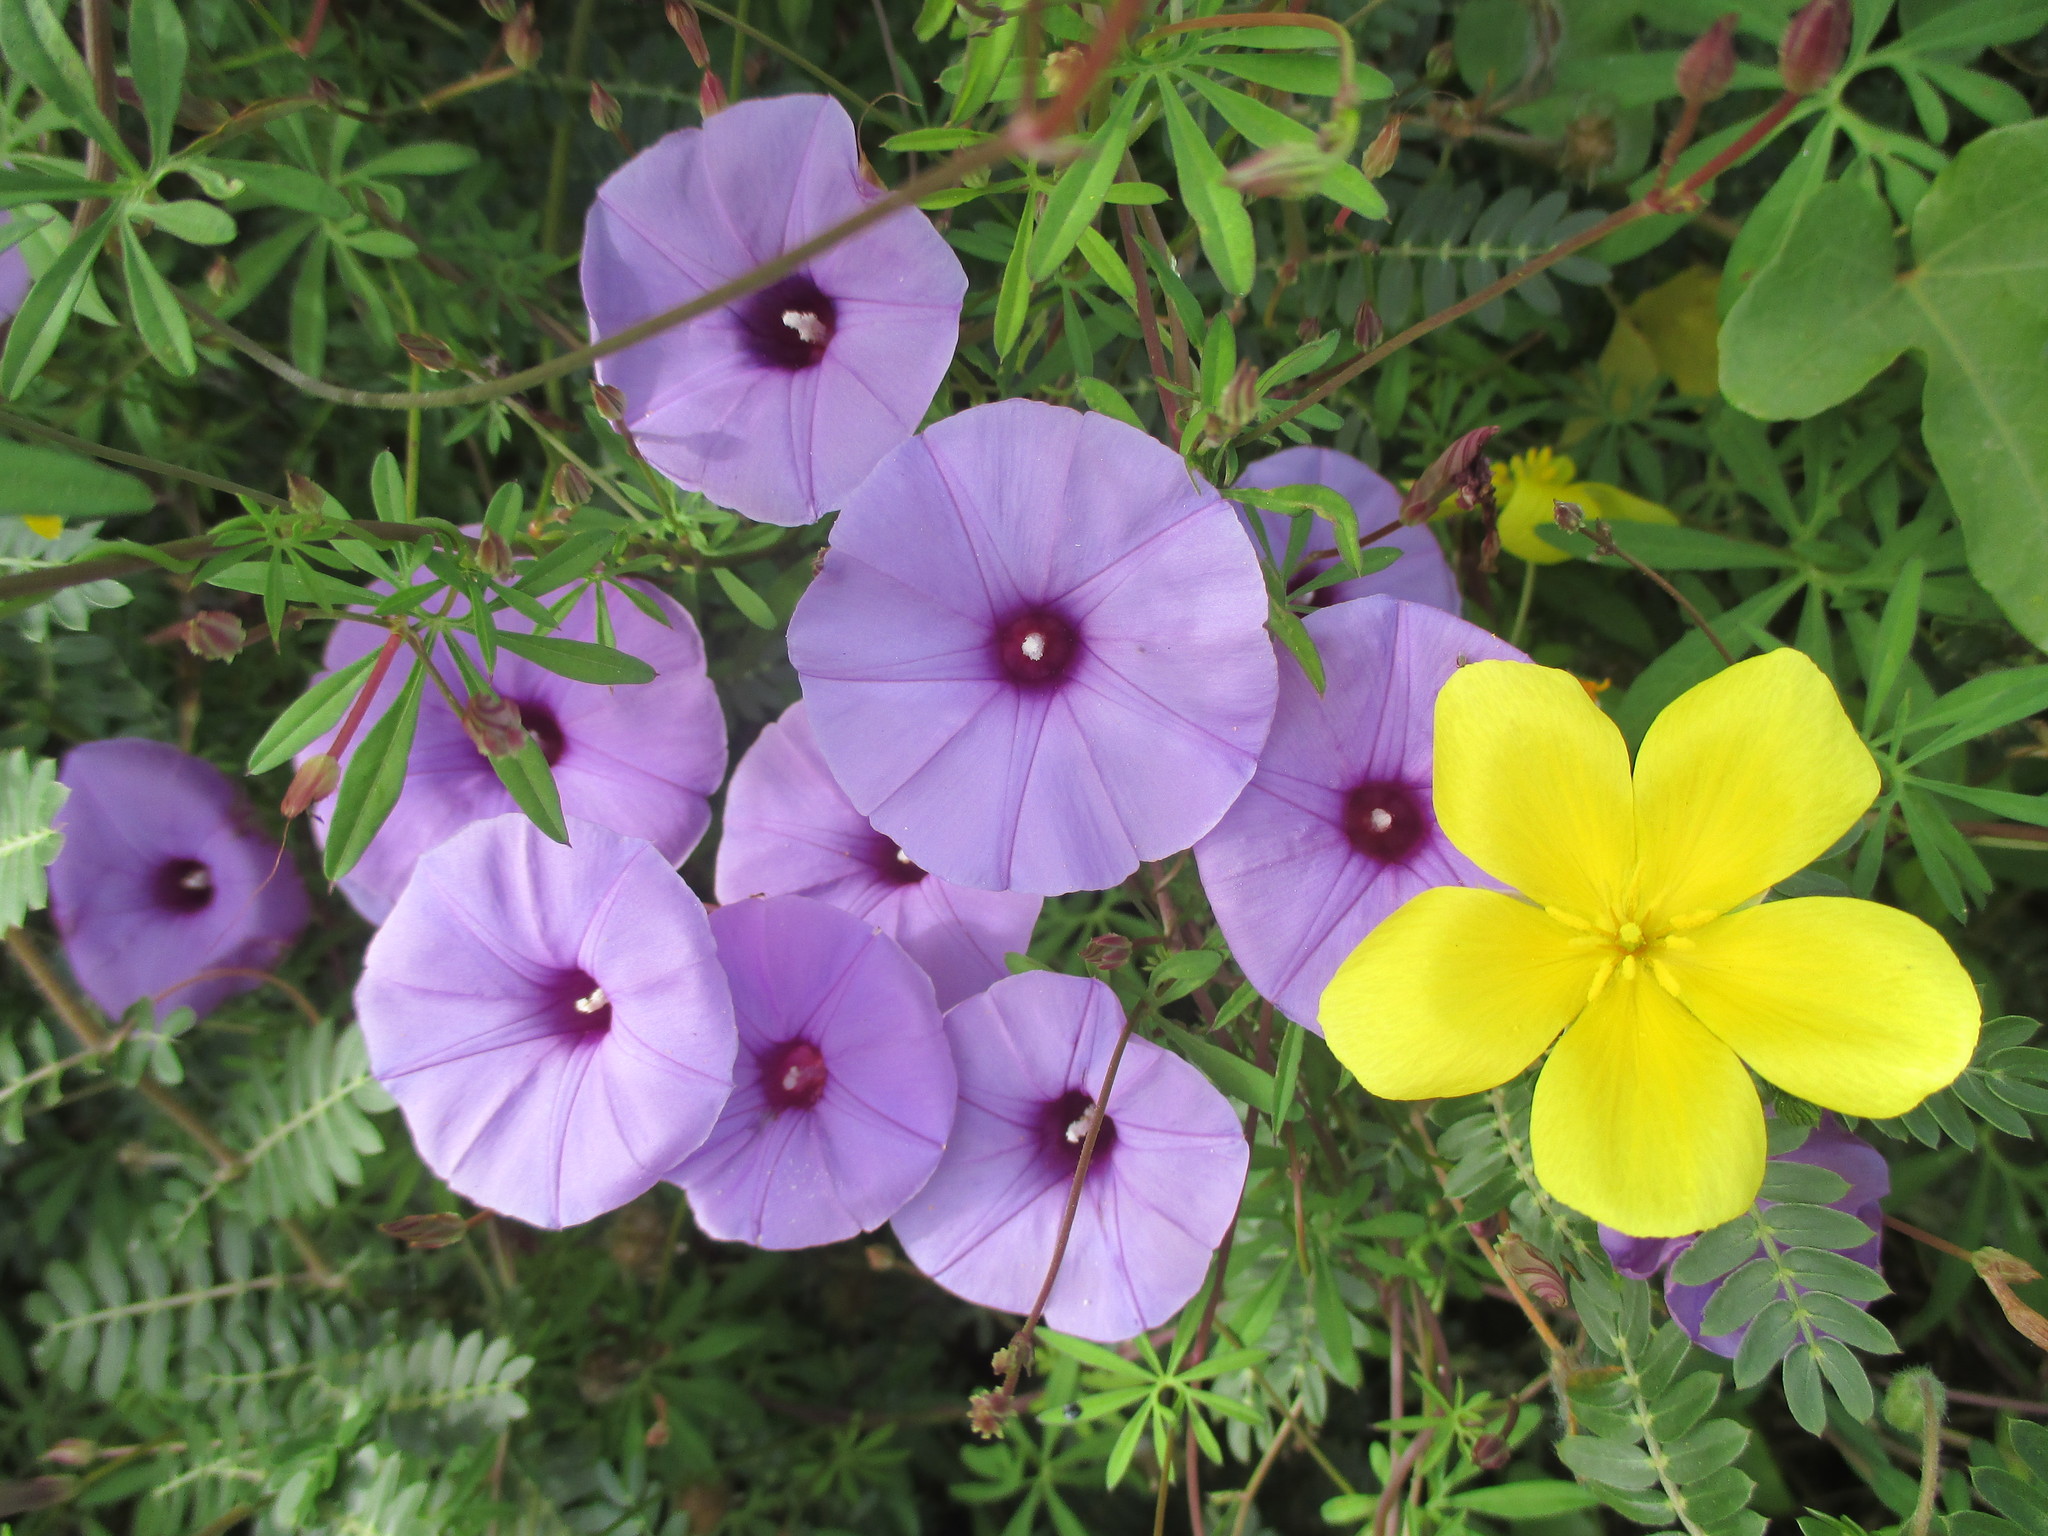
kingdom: Plantae
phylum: Tracheophyta
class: Magnoliopsida
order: Solanales
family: Convolvulaceae
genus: Ipomoea
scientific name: Ipomoea ternifolia
